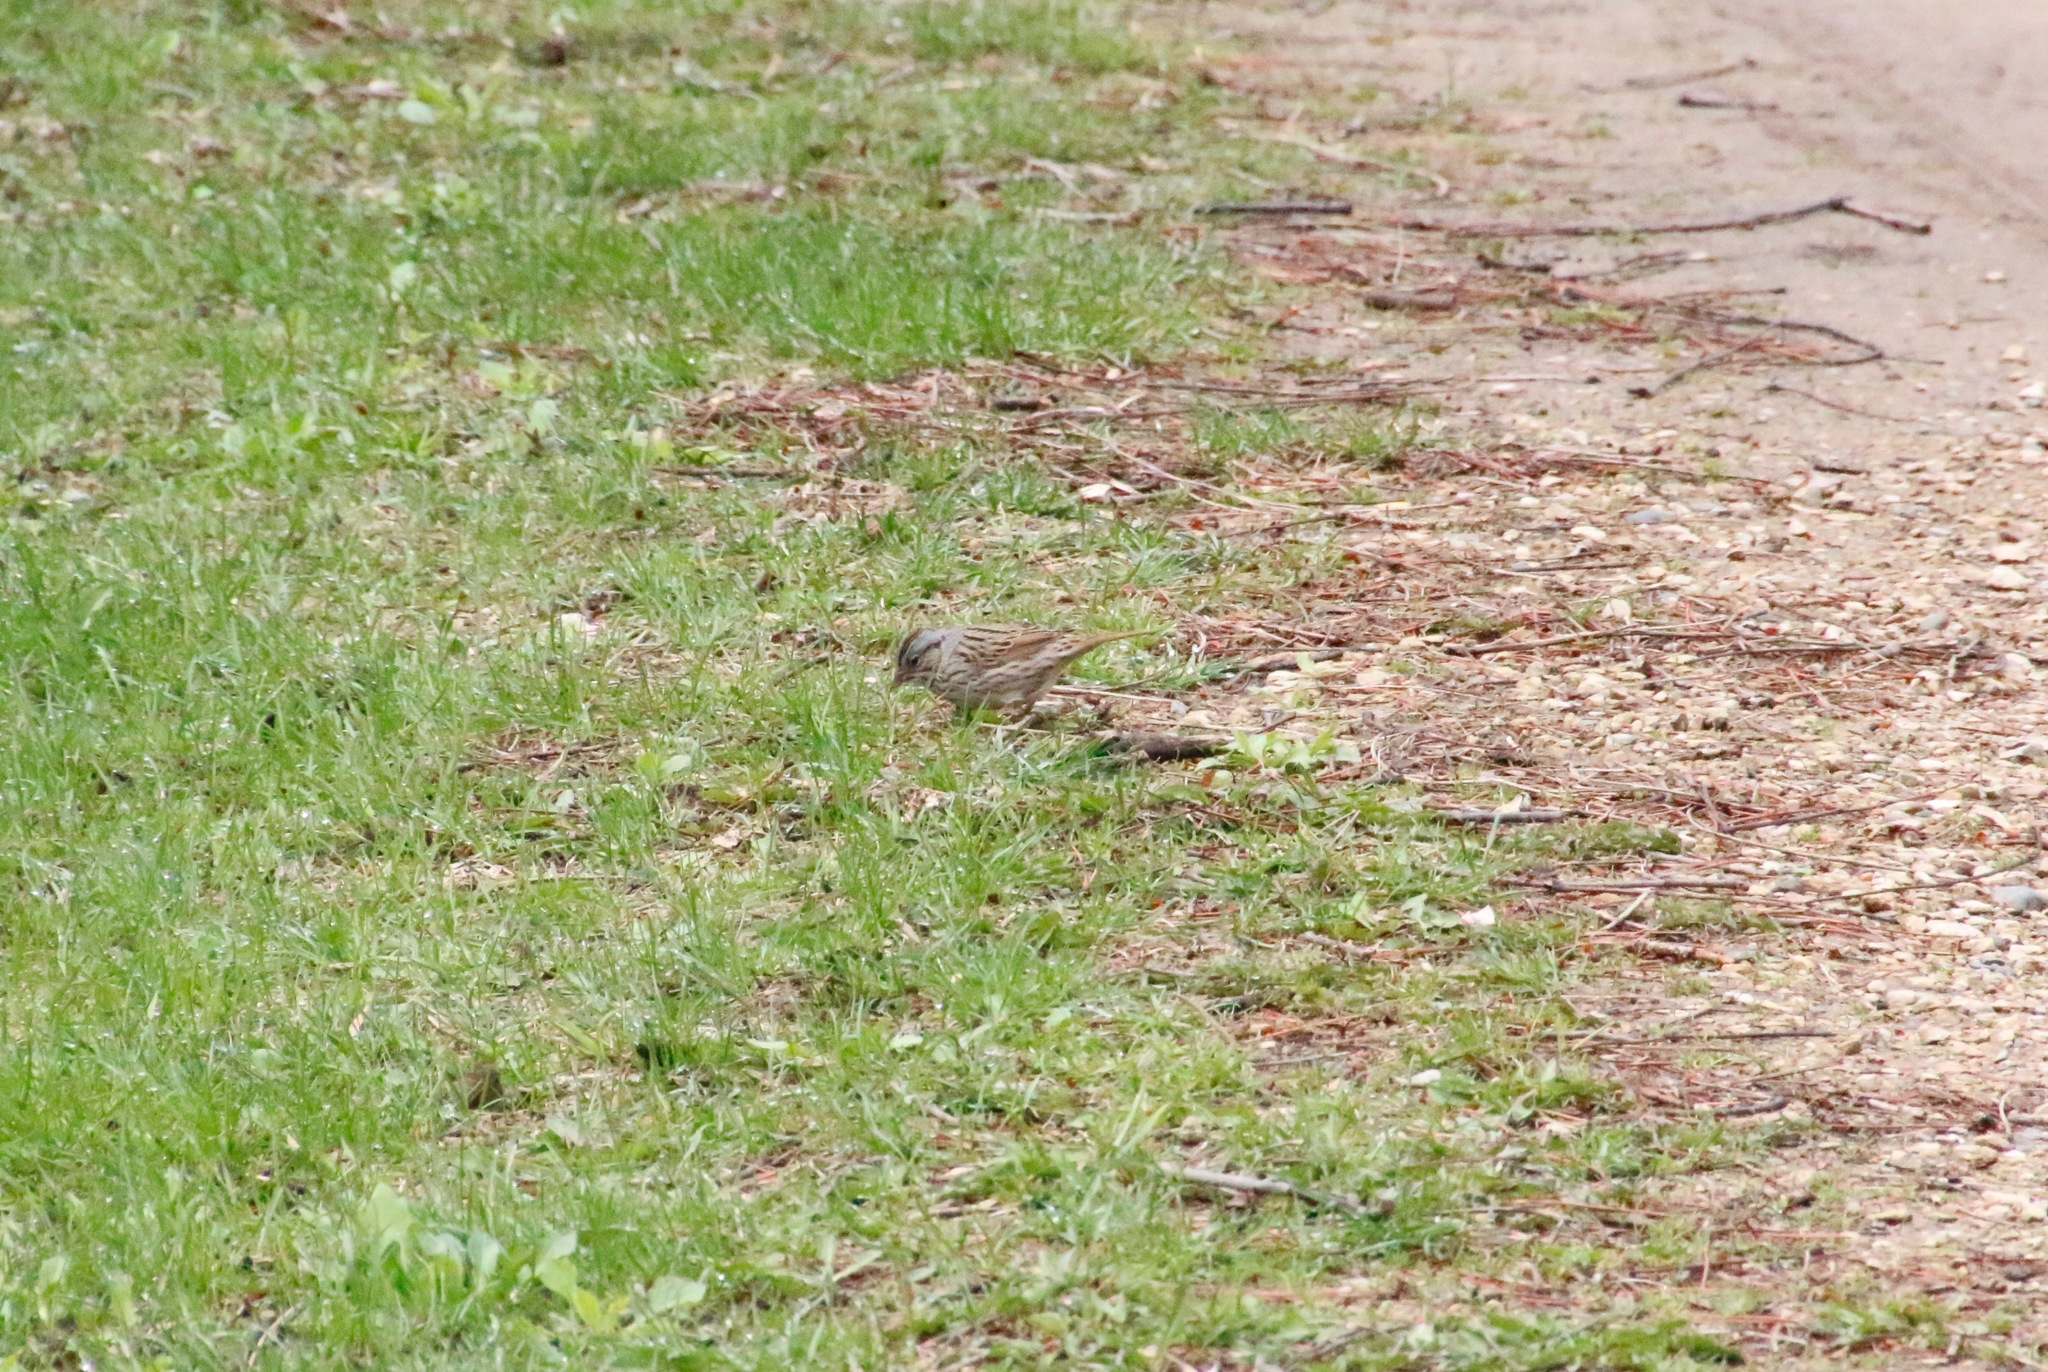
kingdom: Animalia
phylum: Chordata
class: Aves
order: Passeriformes
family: Passerellidae
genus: Melospiza
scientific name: Melospiza lincolnii
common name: Lincoln's sparrow
